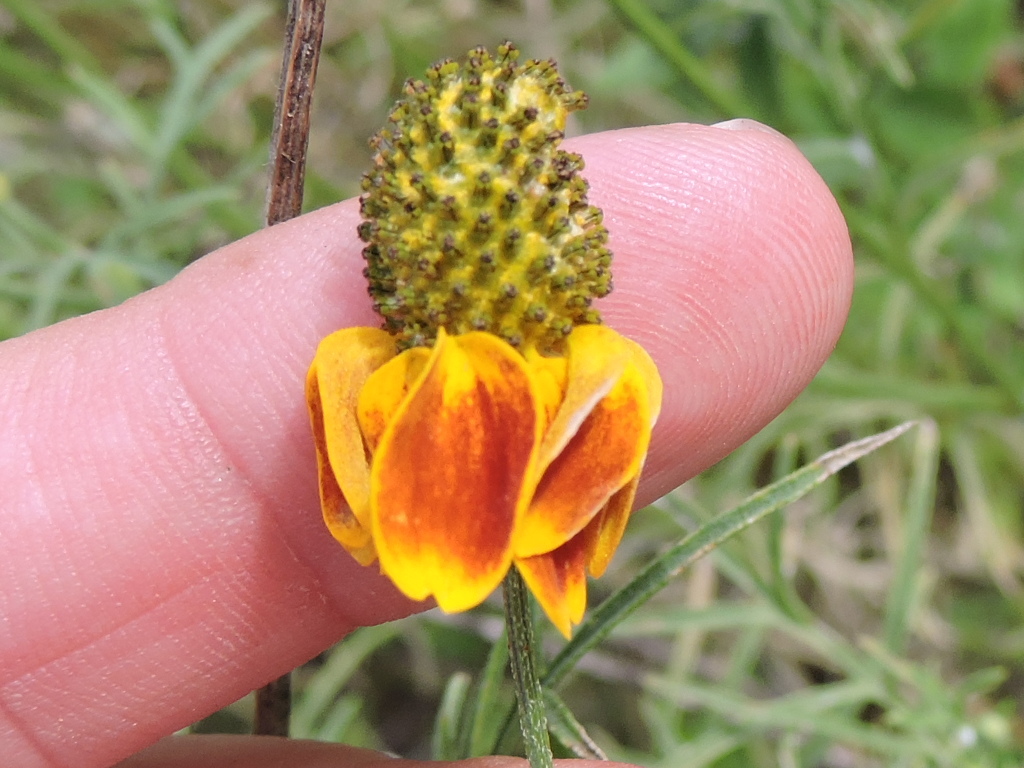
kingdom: Plantae
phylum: Tracheophyta
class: Magnoliopsida
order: Asterales
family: Asteraceae
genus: Ratibida
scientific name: Ratibida columnifera
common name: Prairie coneflower
